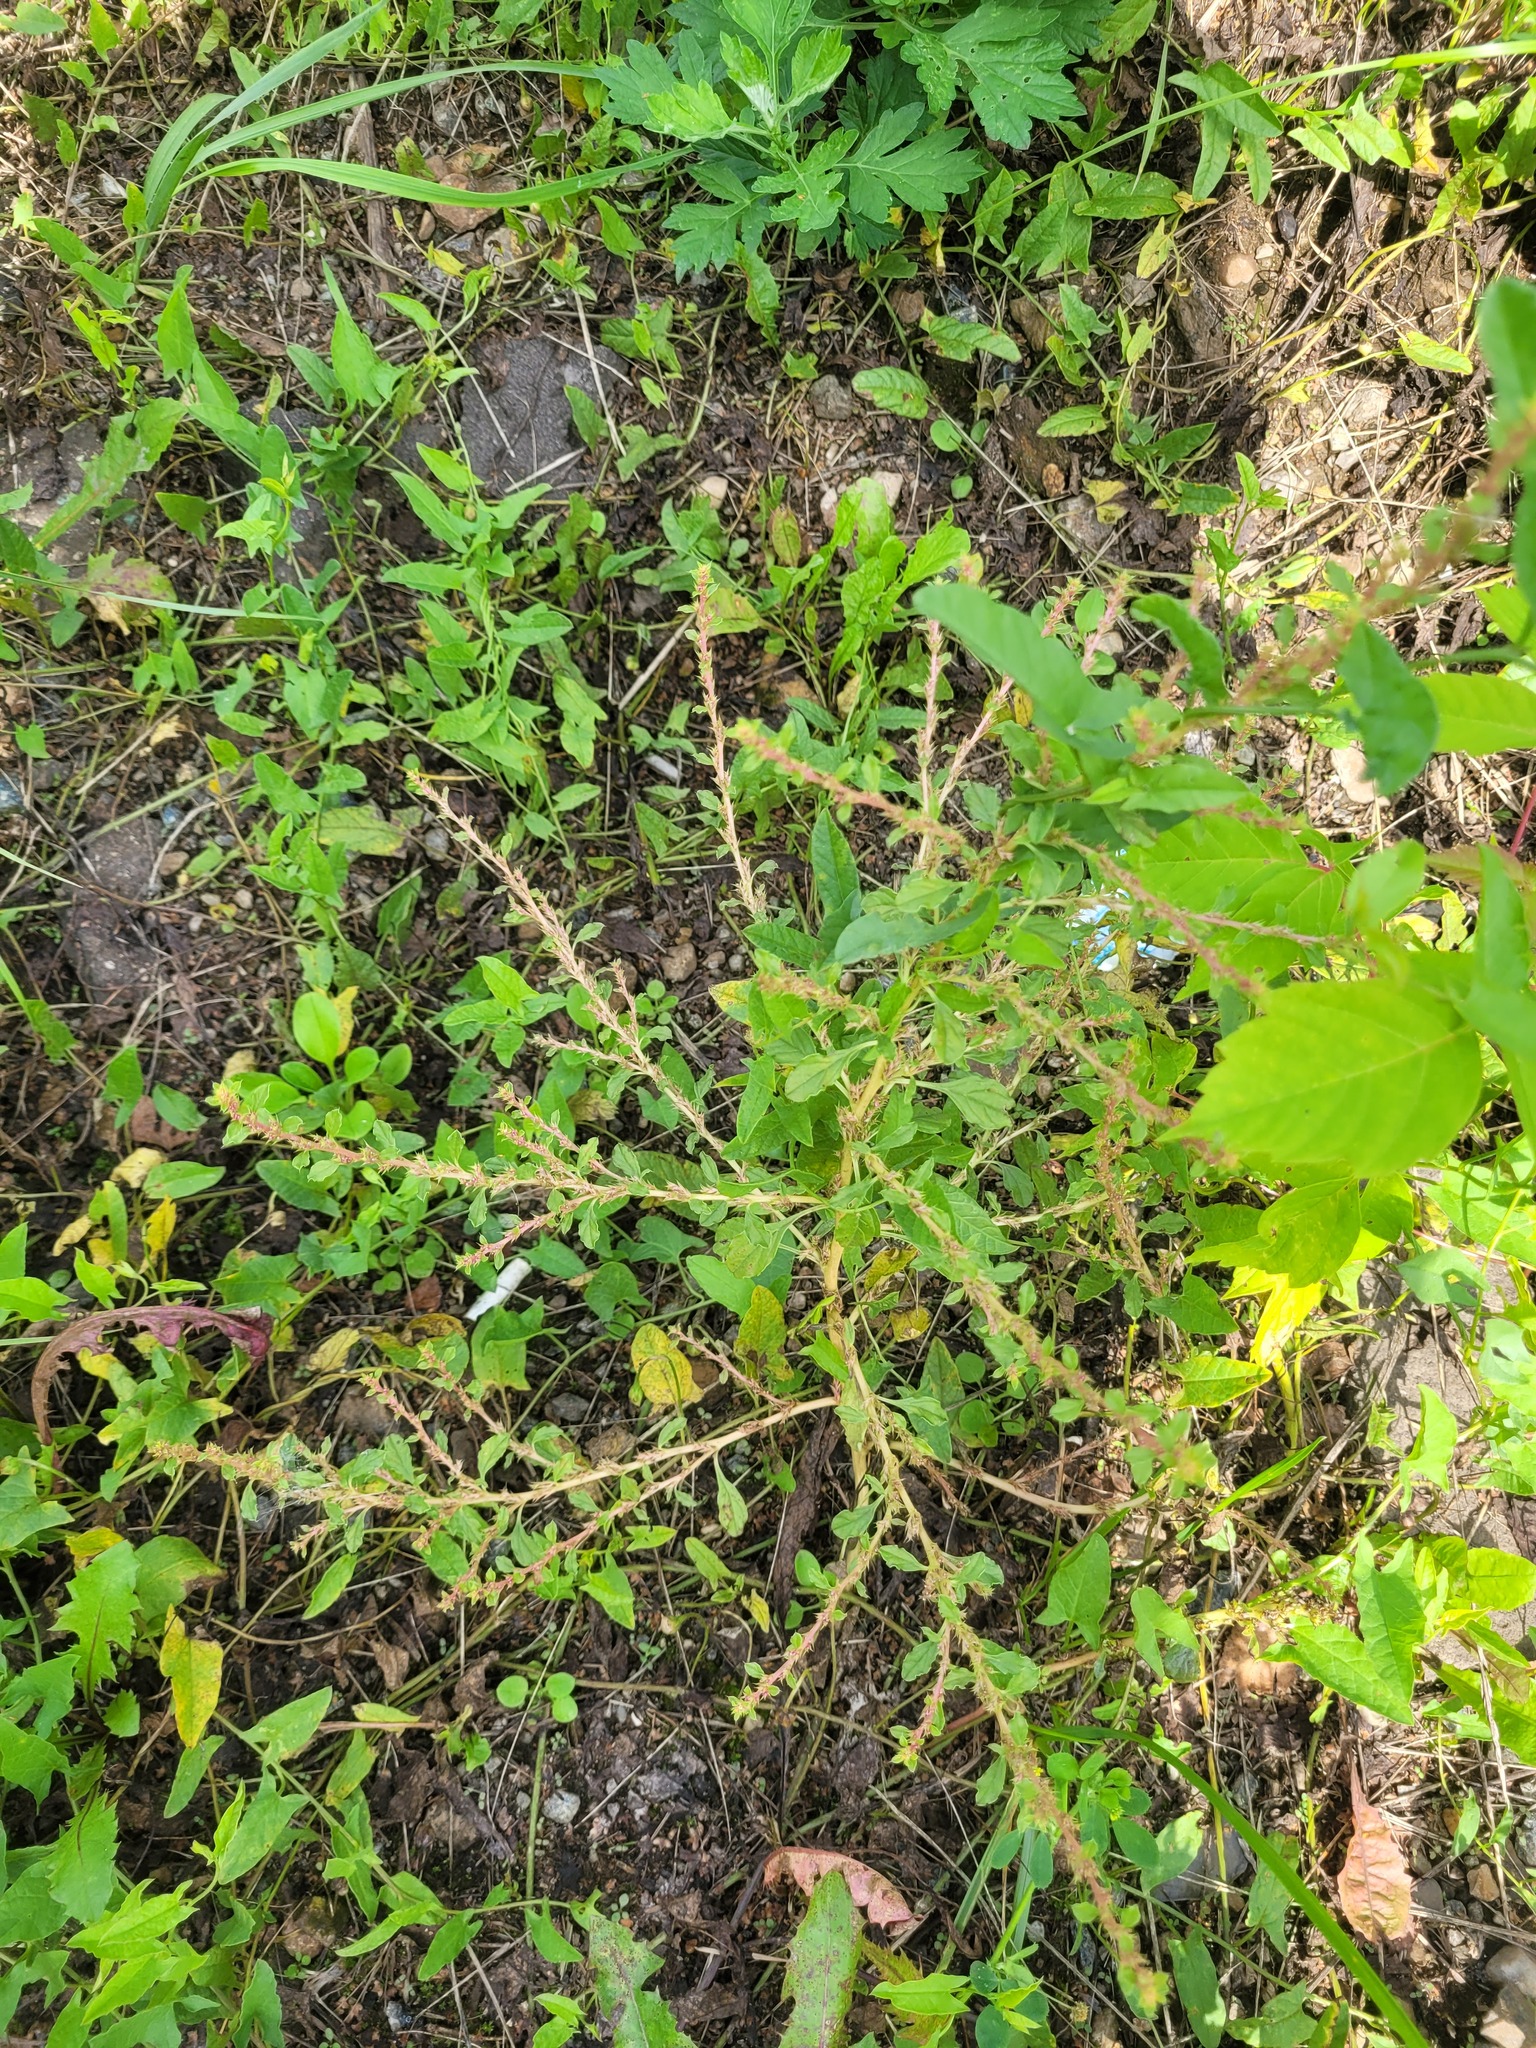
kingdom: Plantae
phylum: Tracheophyta
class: Magnoliopsida
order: Caryophyllales
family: Amaranthaceae
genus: Amaranthus
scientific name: Amaranthus albus
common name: White pigweed
